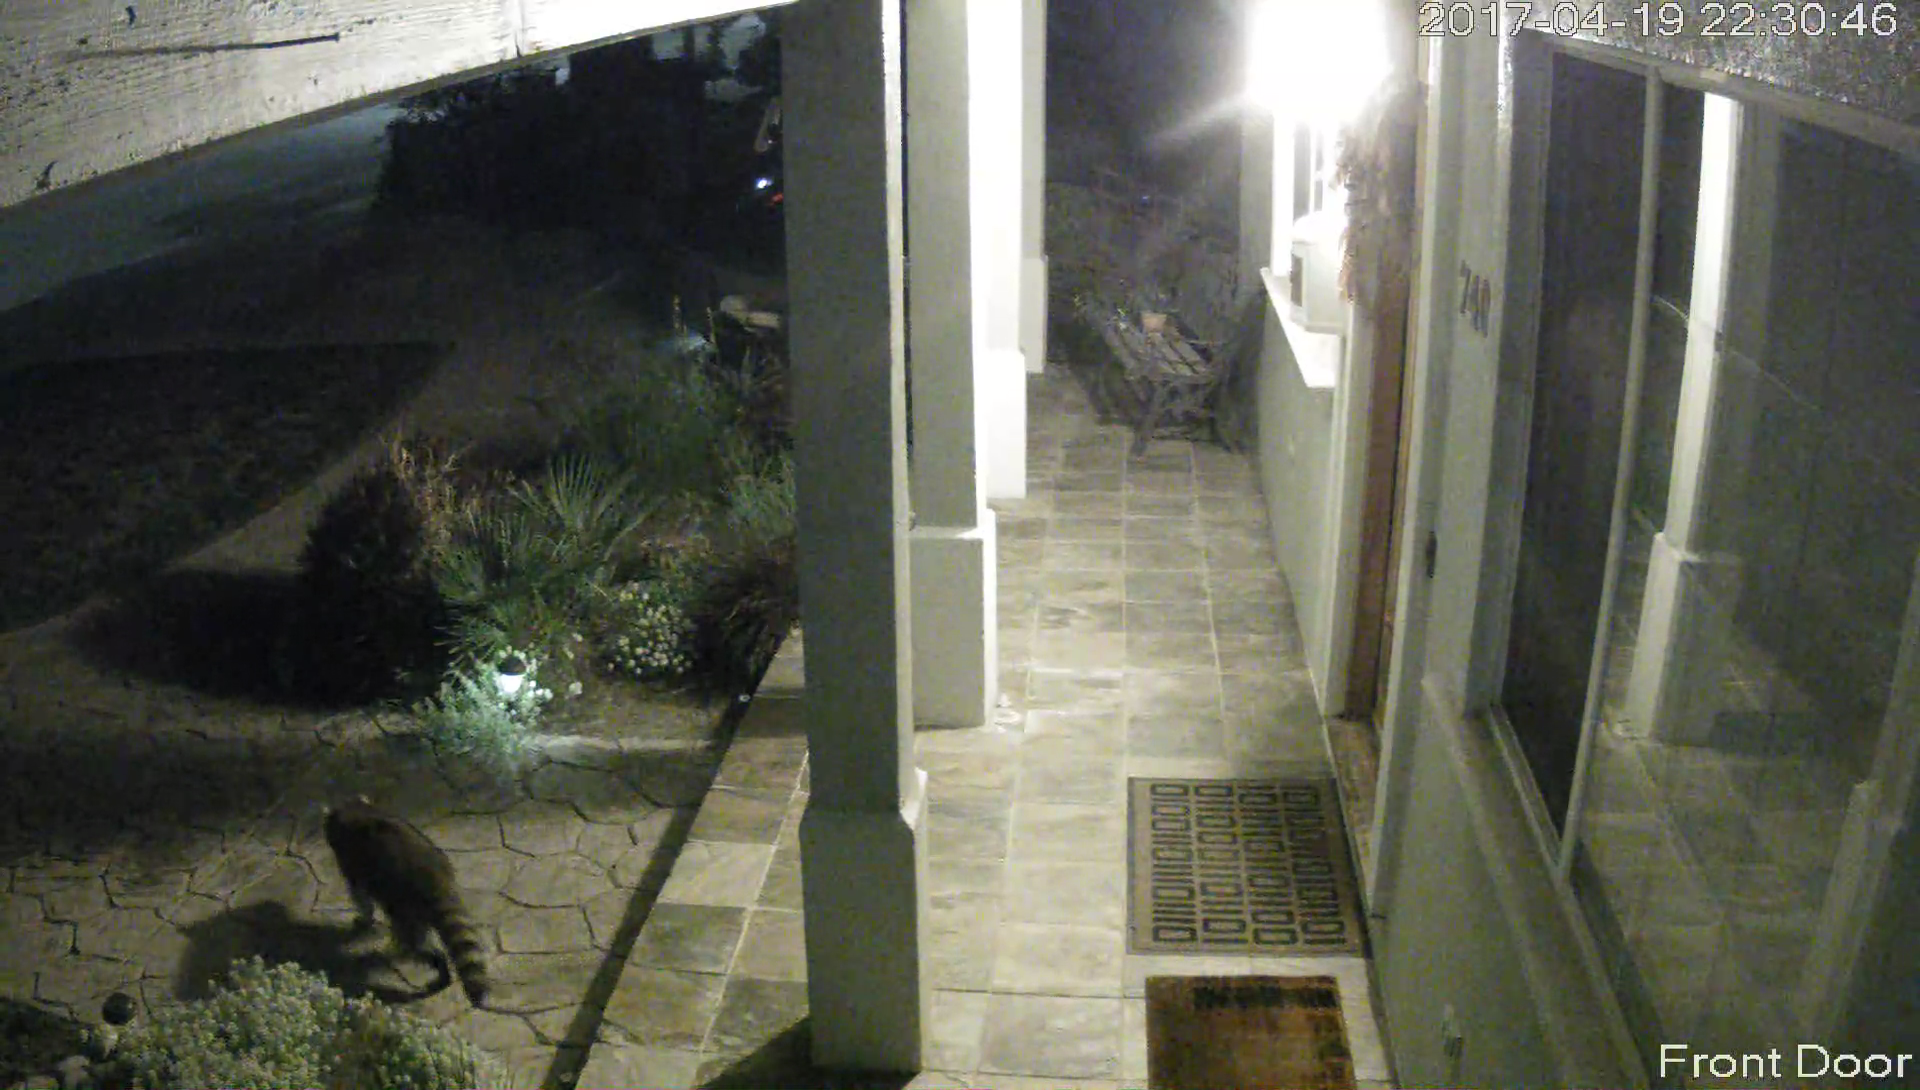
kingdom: Animalia
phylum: Chordata
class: Mammalia
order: Carnivora
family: Procyonidae
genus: Procyon
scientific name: Procyon lotor
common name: Raccoon
